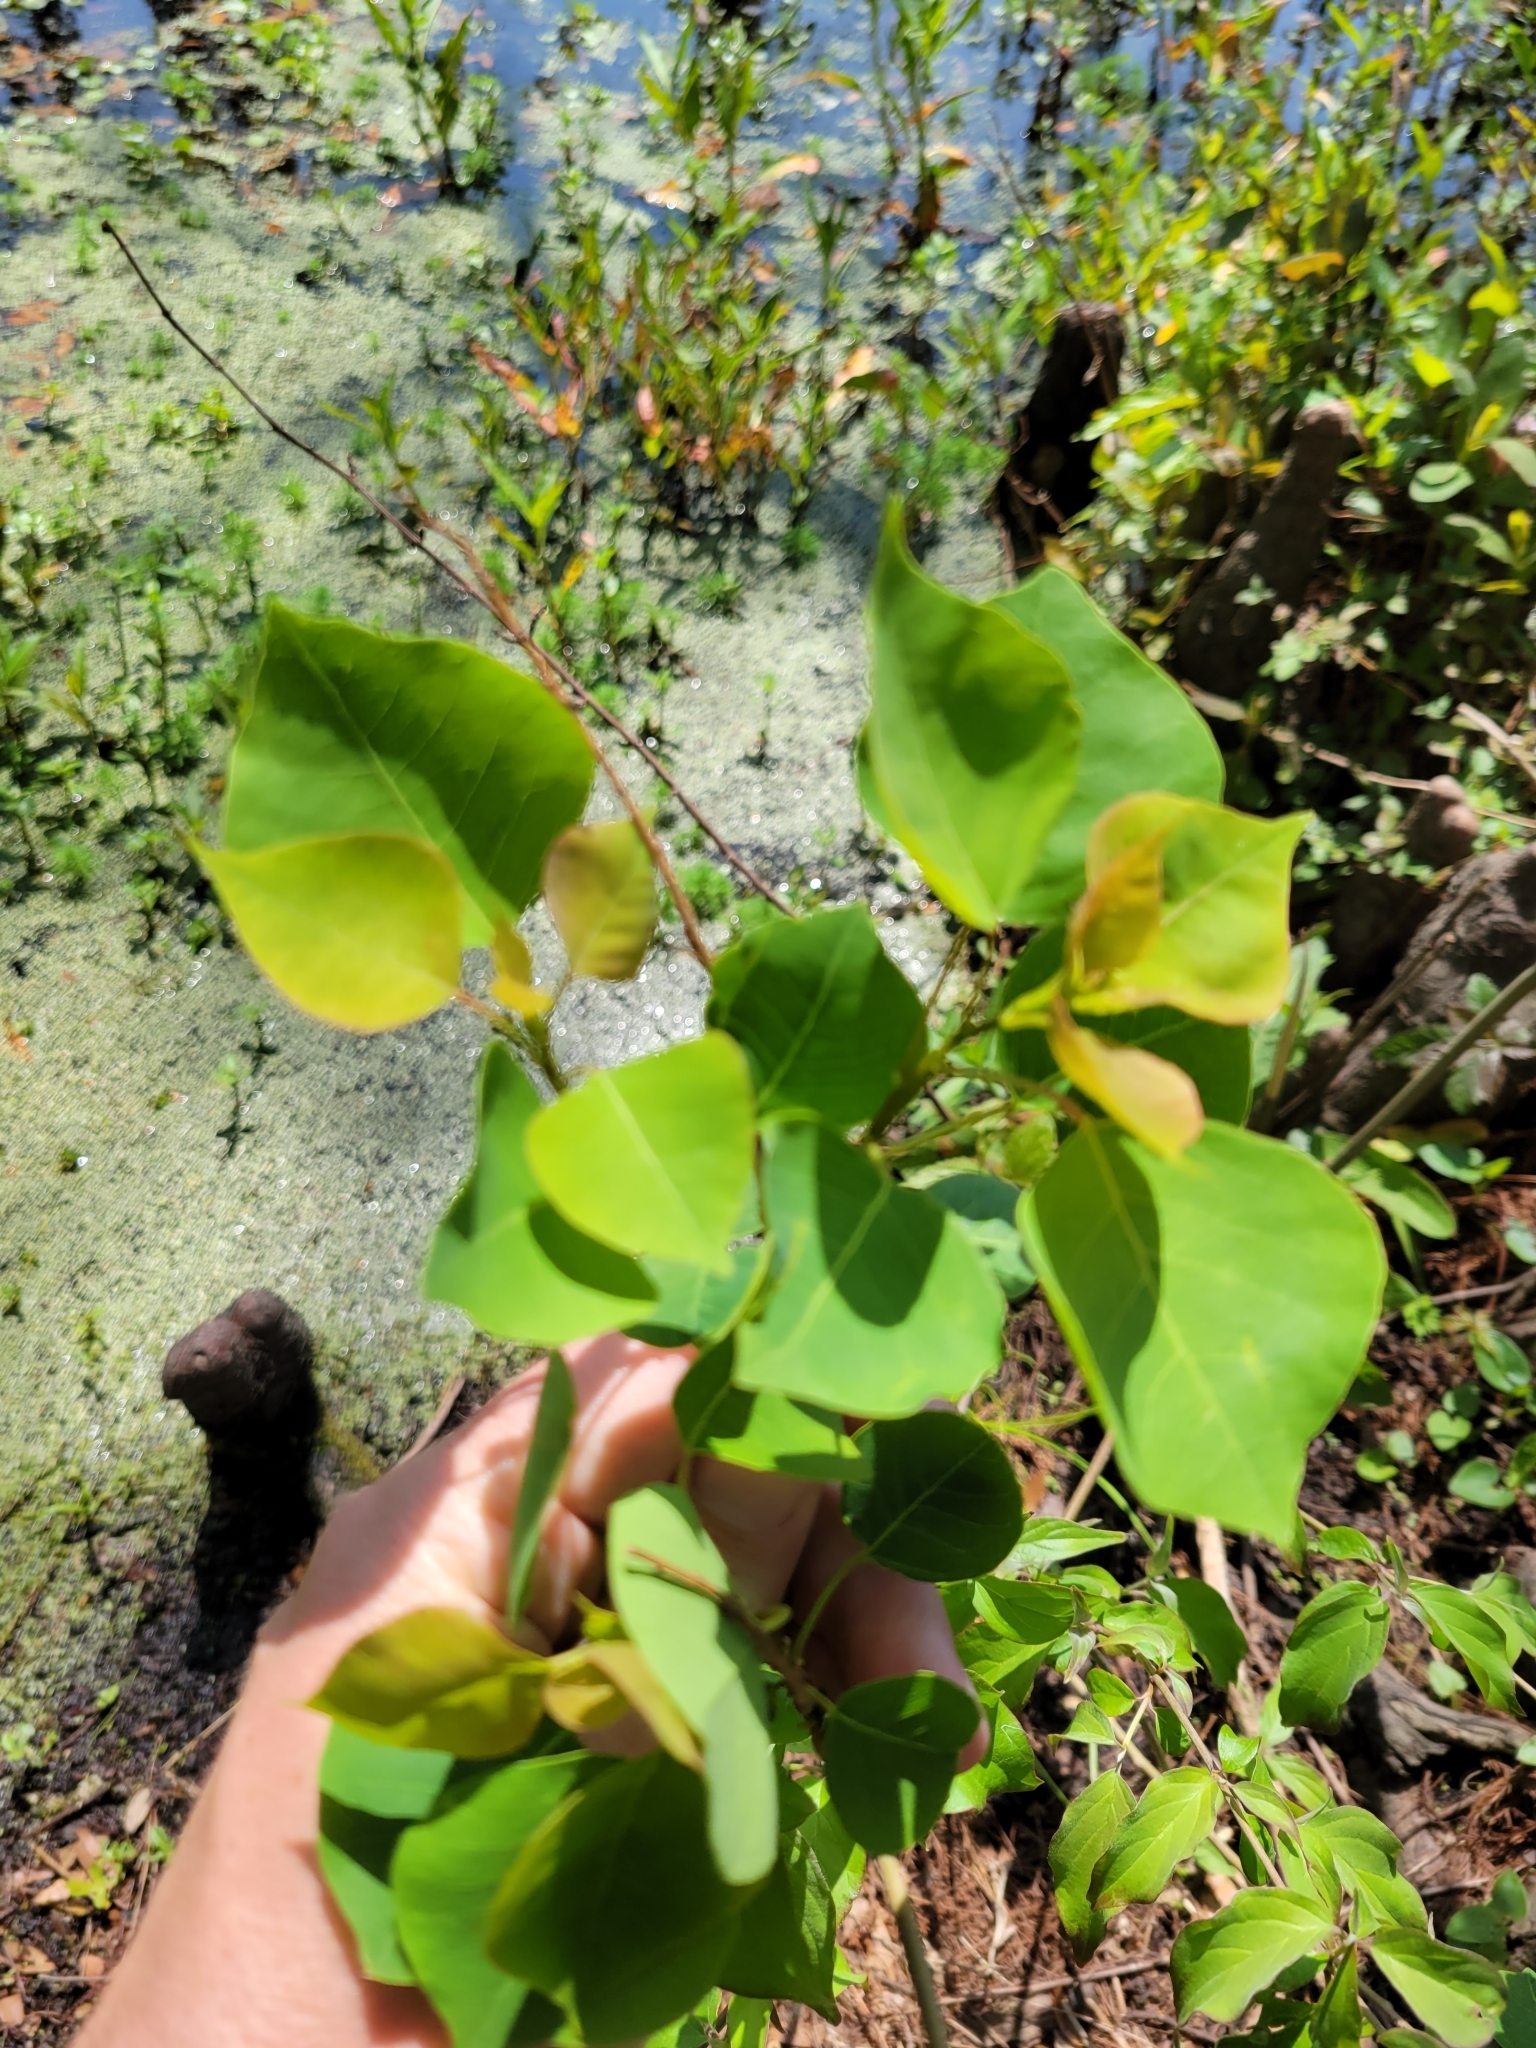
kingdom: Plantae
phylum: Tracheophyta
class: Magnoliopsida
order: Malpighiales
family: Euphorbiaceae
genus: Triadica
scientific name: Triadica sebifera
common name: Chinese tallow
